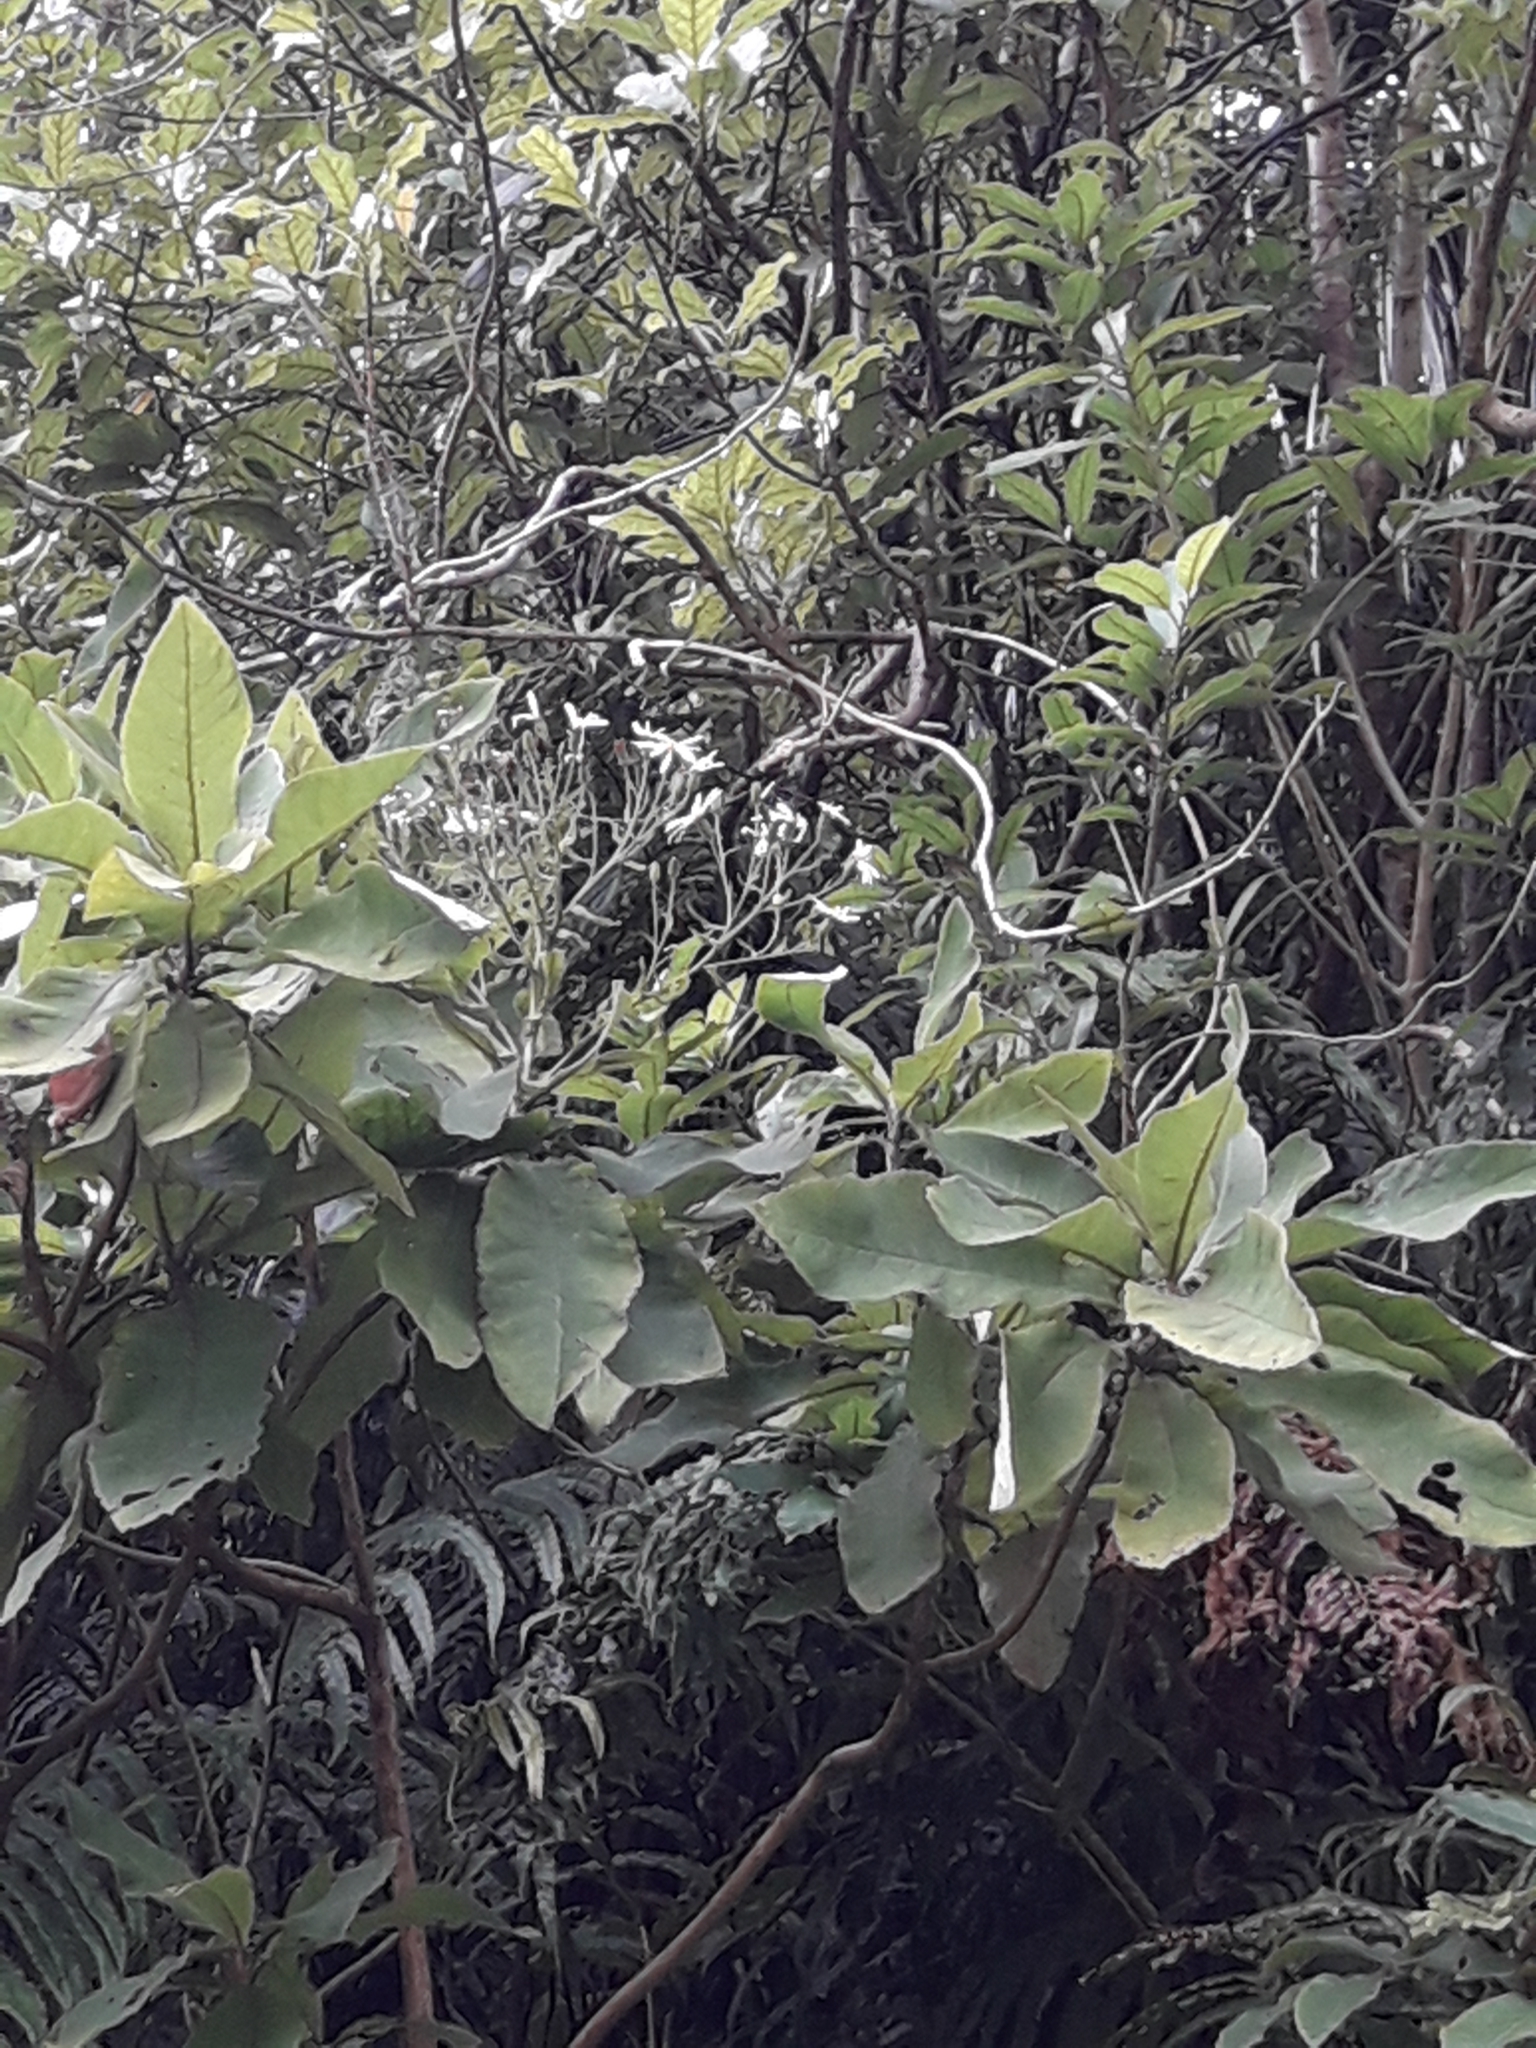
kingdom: Plantae
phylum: Tracheophyta
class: Magnoliopsida
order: Asterales
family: Asteraceae
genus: Brachyglottis
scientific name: Brachyglottis hectorii
